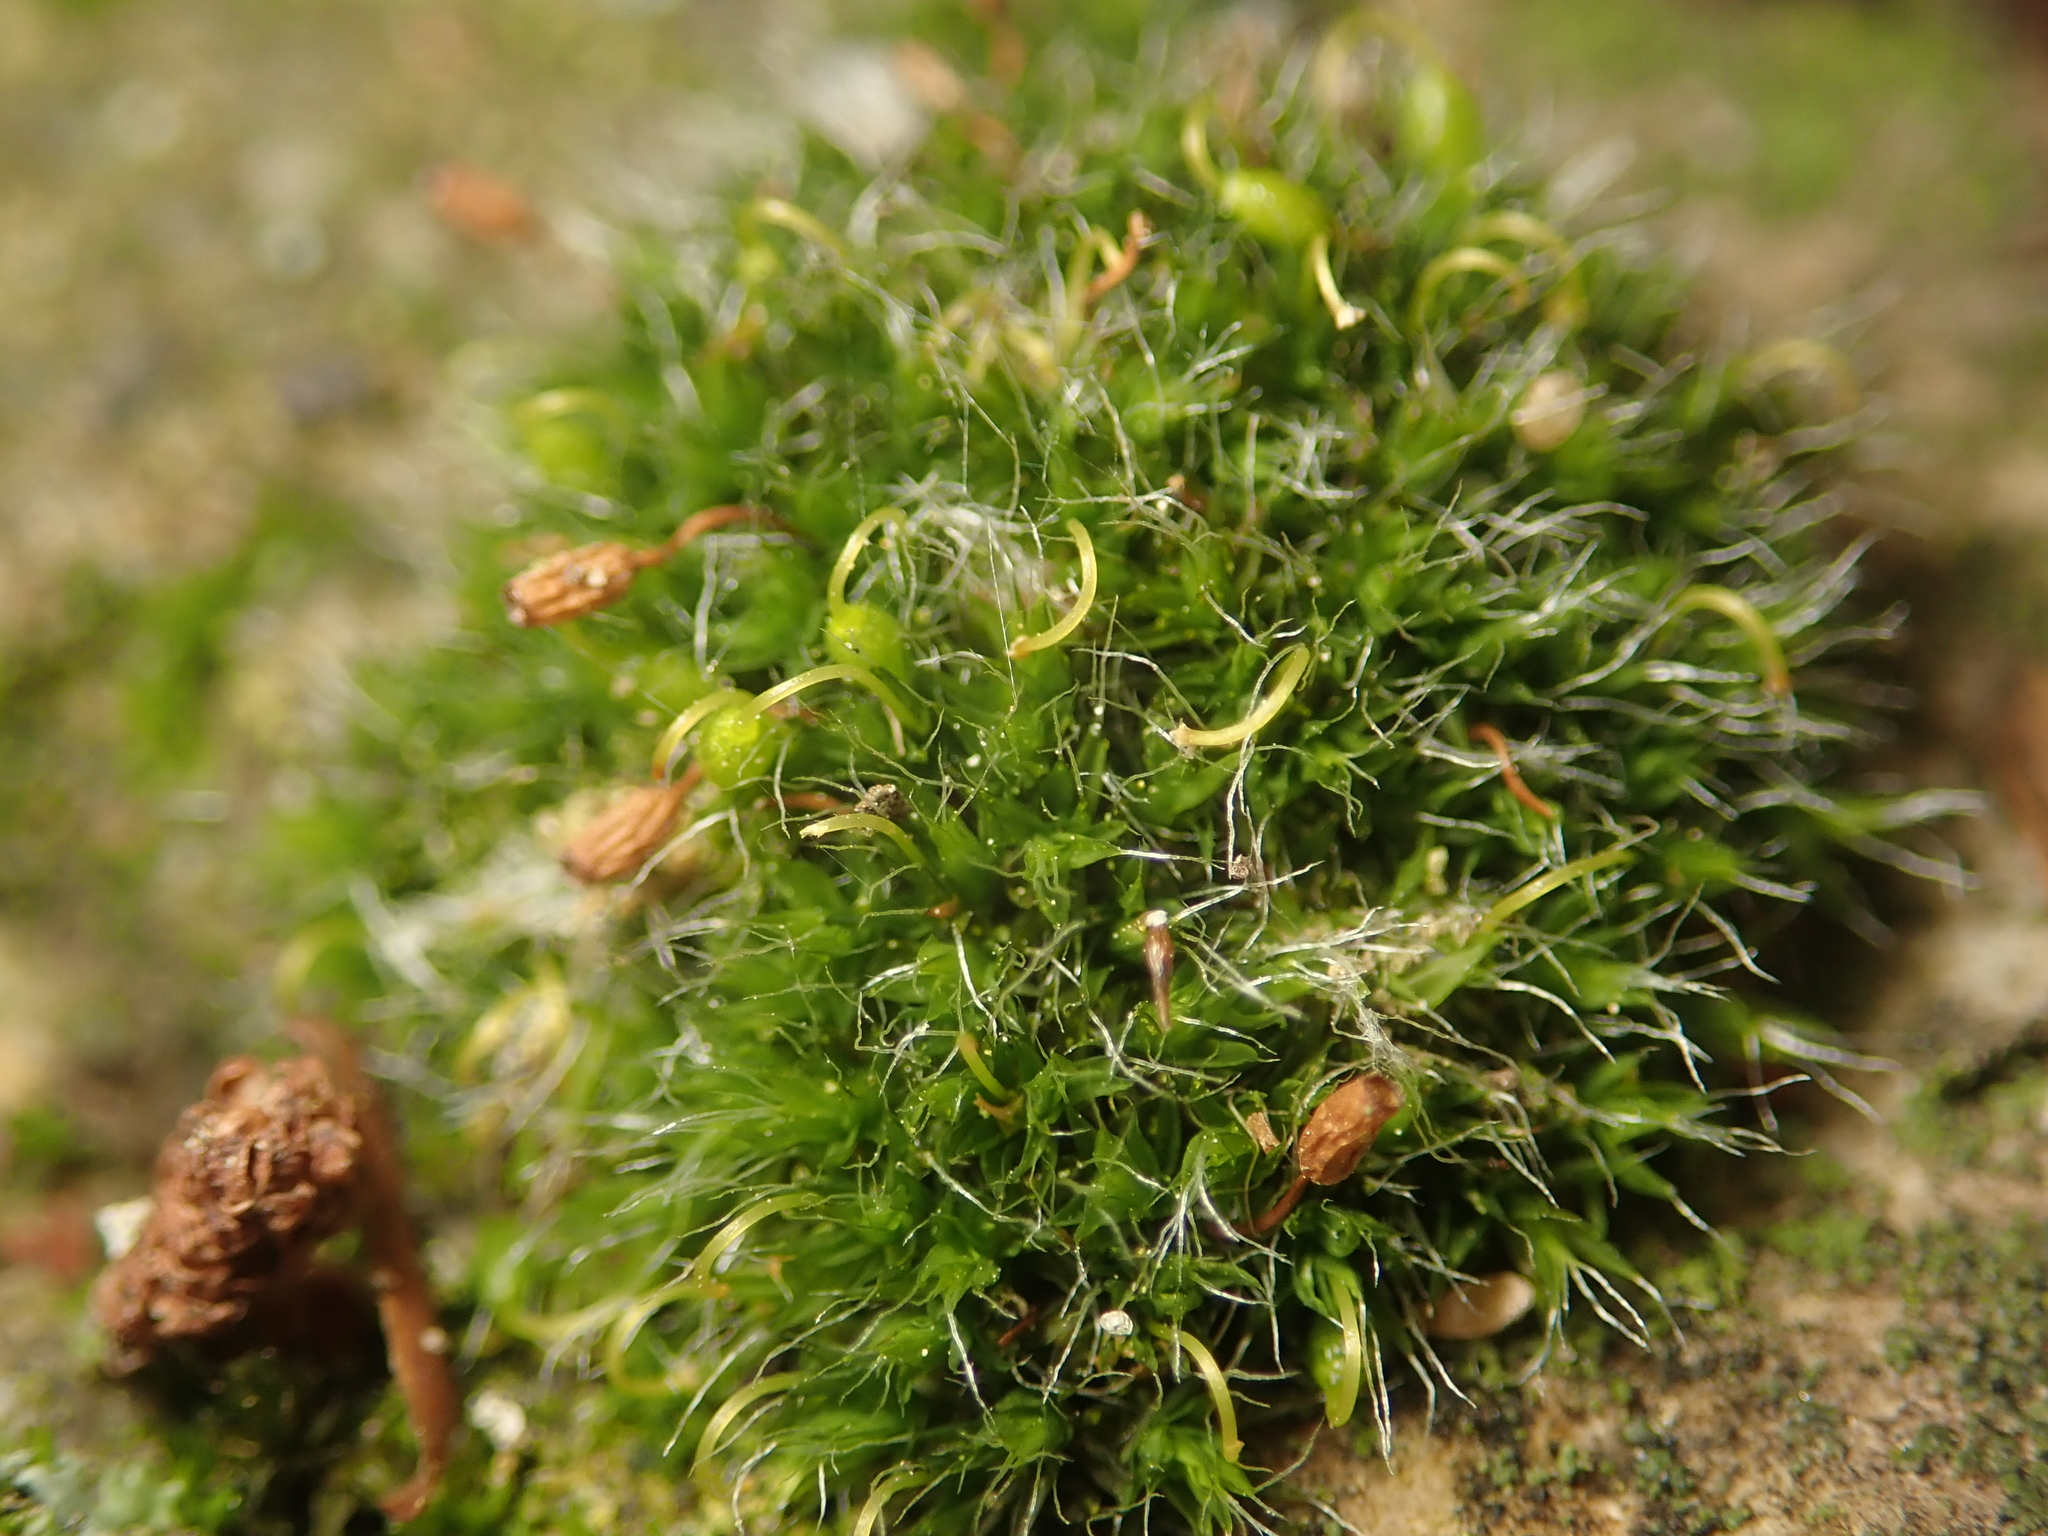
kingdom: Plantae
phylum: Bryophyta
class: Bryopsida
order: Grimmiales
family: Grimmiaceae
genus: Grimmia
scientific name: Grimmia pulvinata
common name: Grey-cushioned grimmia
